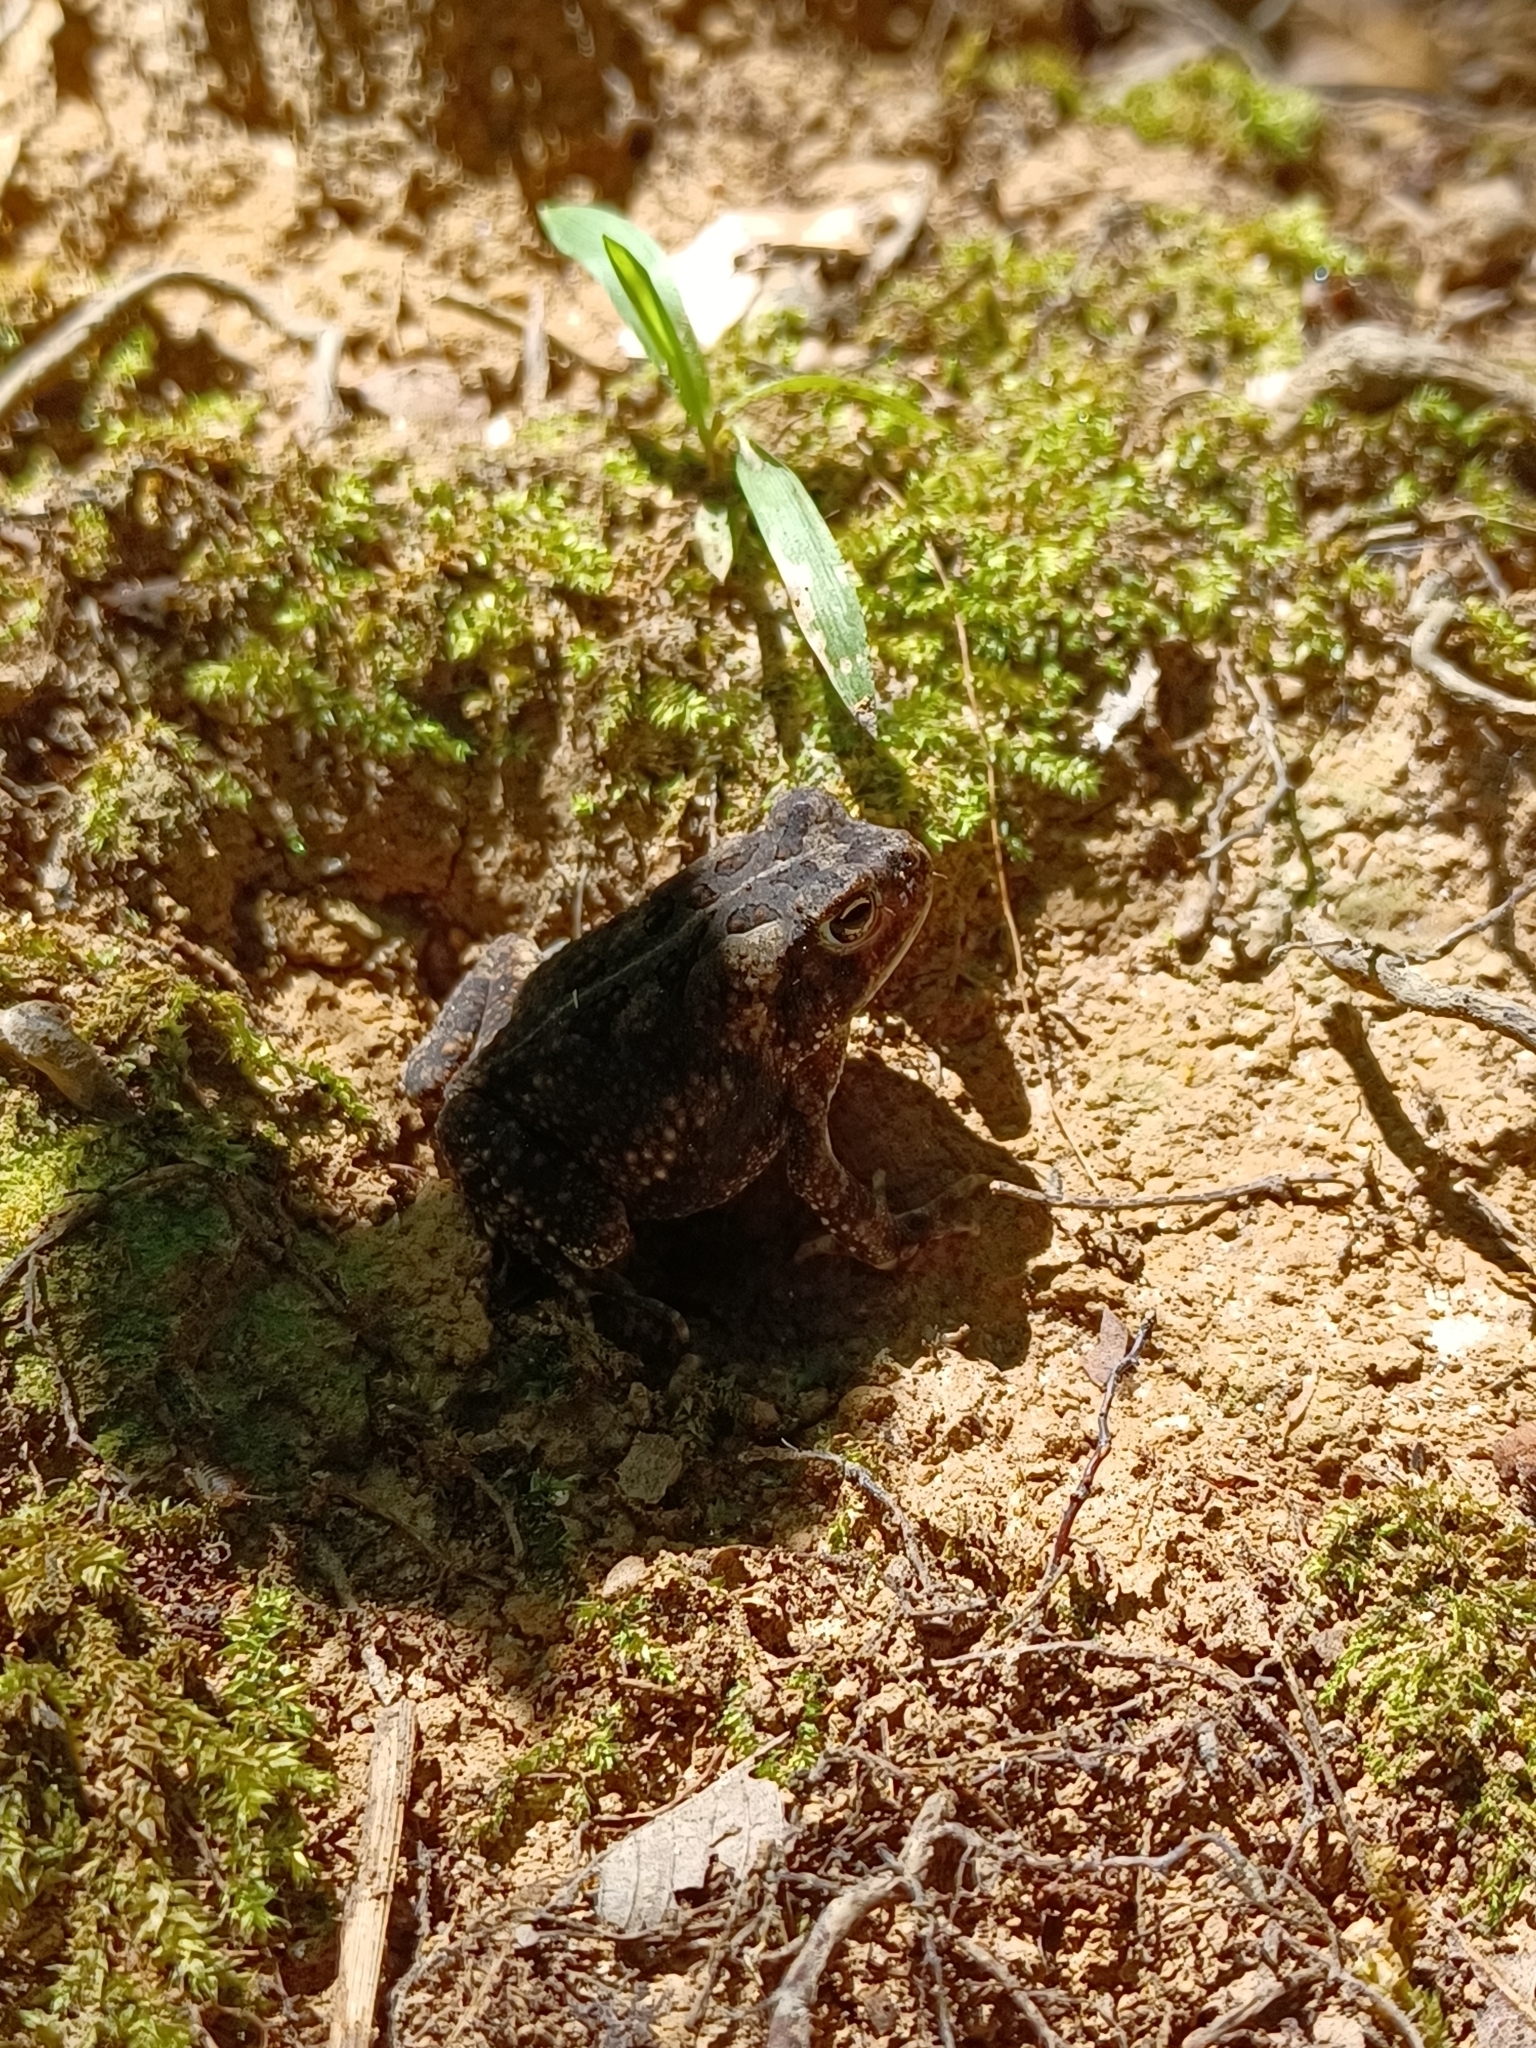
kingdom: Animalia
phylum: Chordata
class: Amphibia
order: Anura
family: Bufonidae
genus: Anaxyrus
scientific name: Anaxyrus fowleri
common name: Fowler's toad
